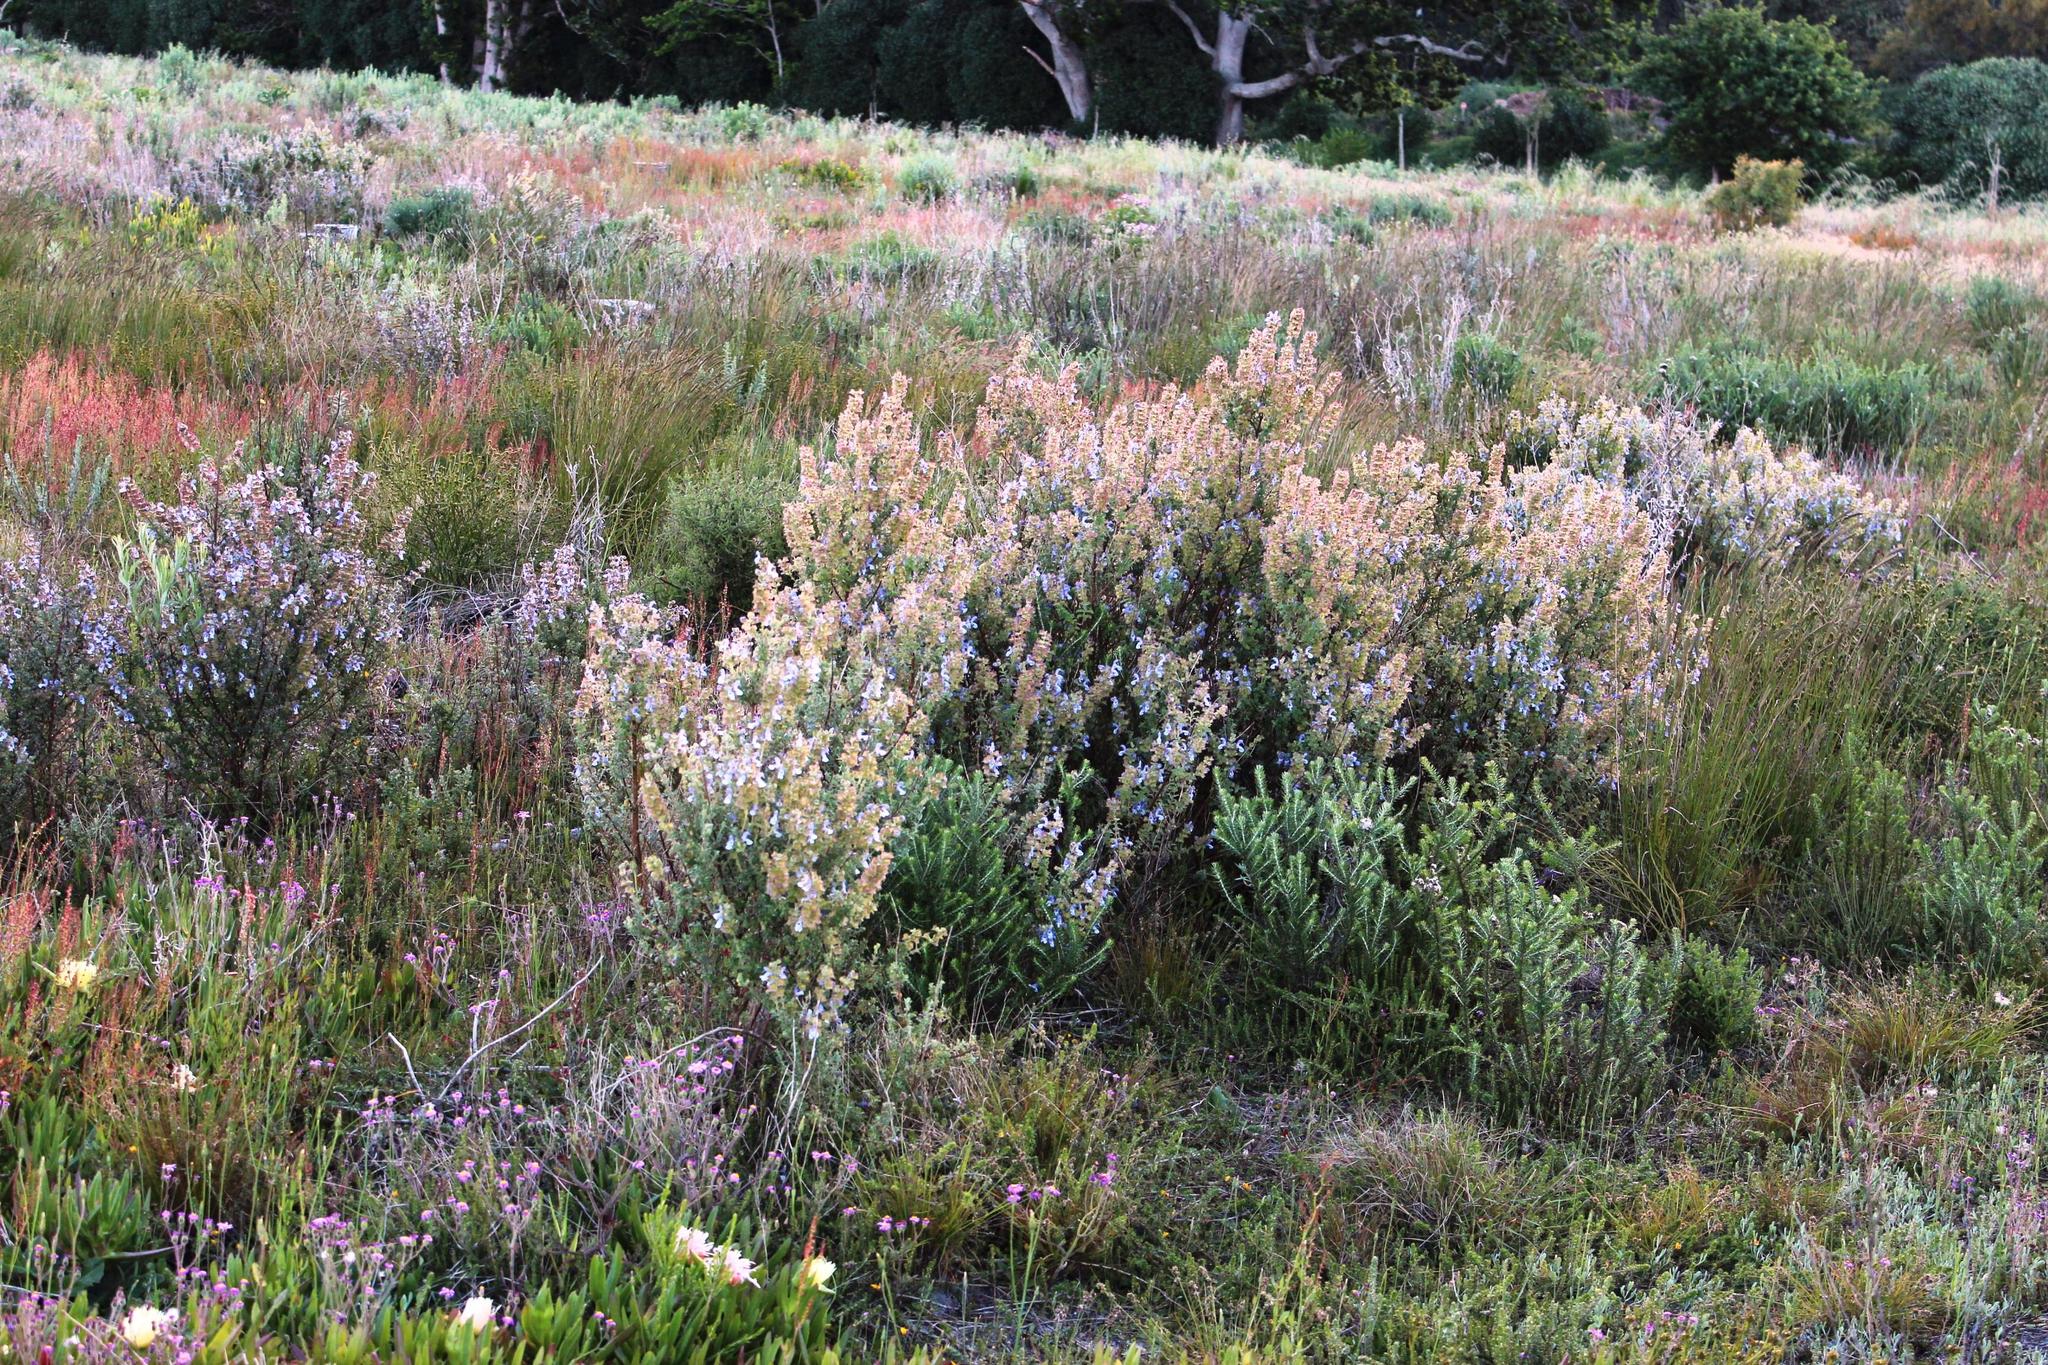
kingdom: Plantae
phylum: Tracheophyta
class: Magnoliopsida
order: Lamiales
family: Lamiaceae
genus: Salvia
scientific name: Salvia africana
